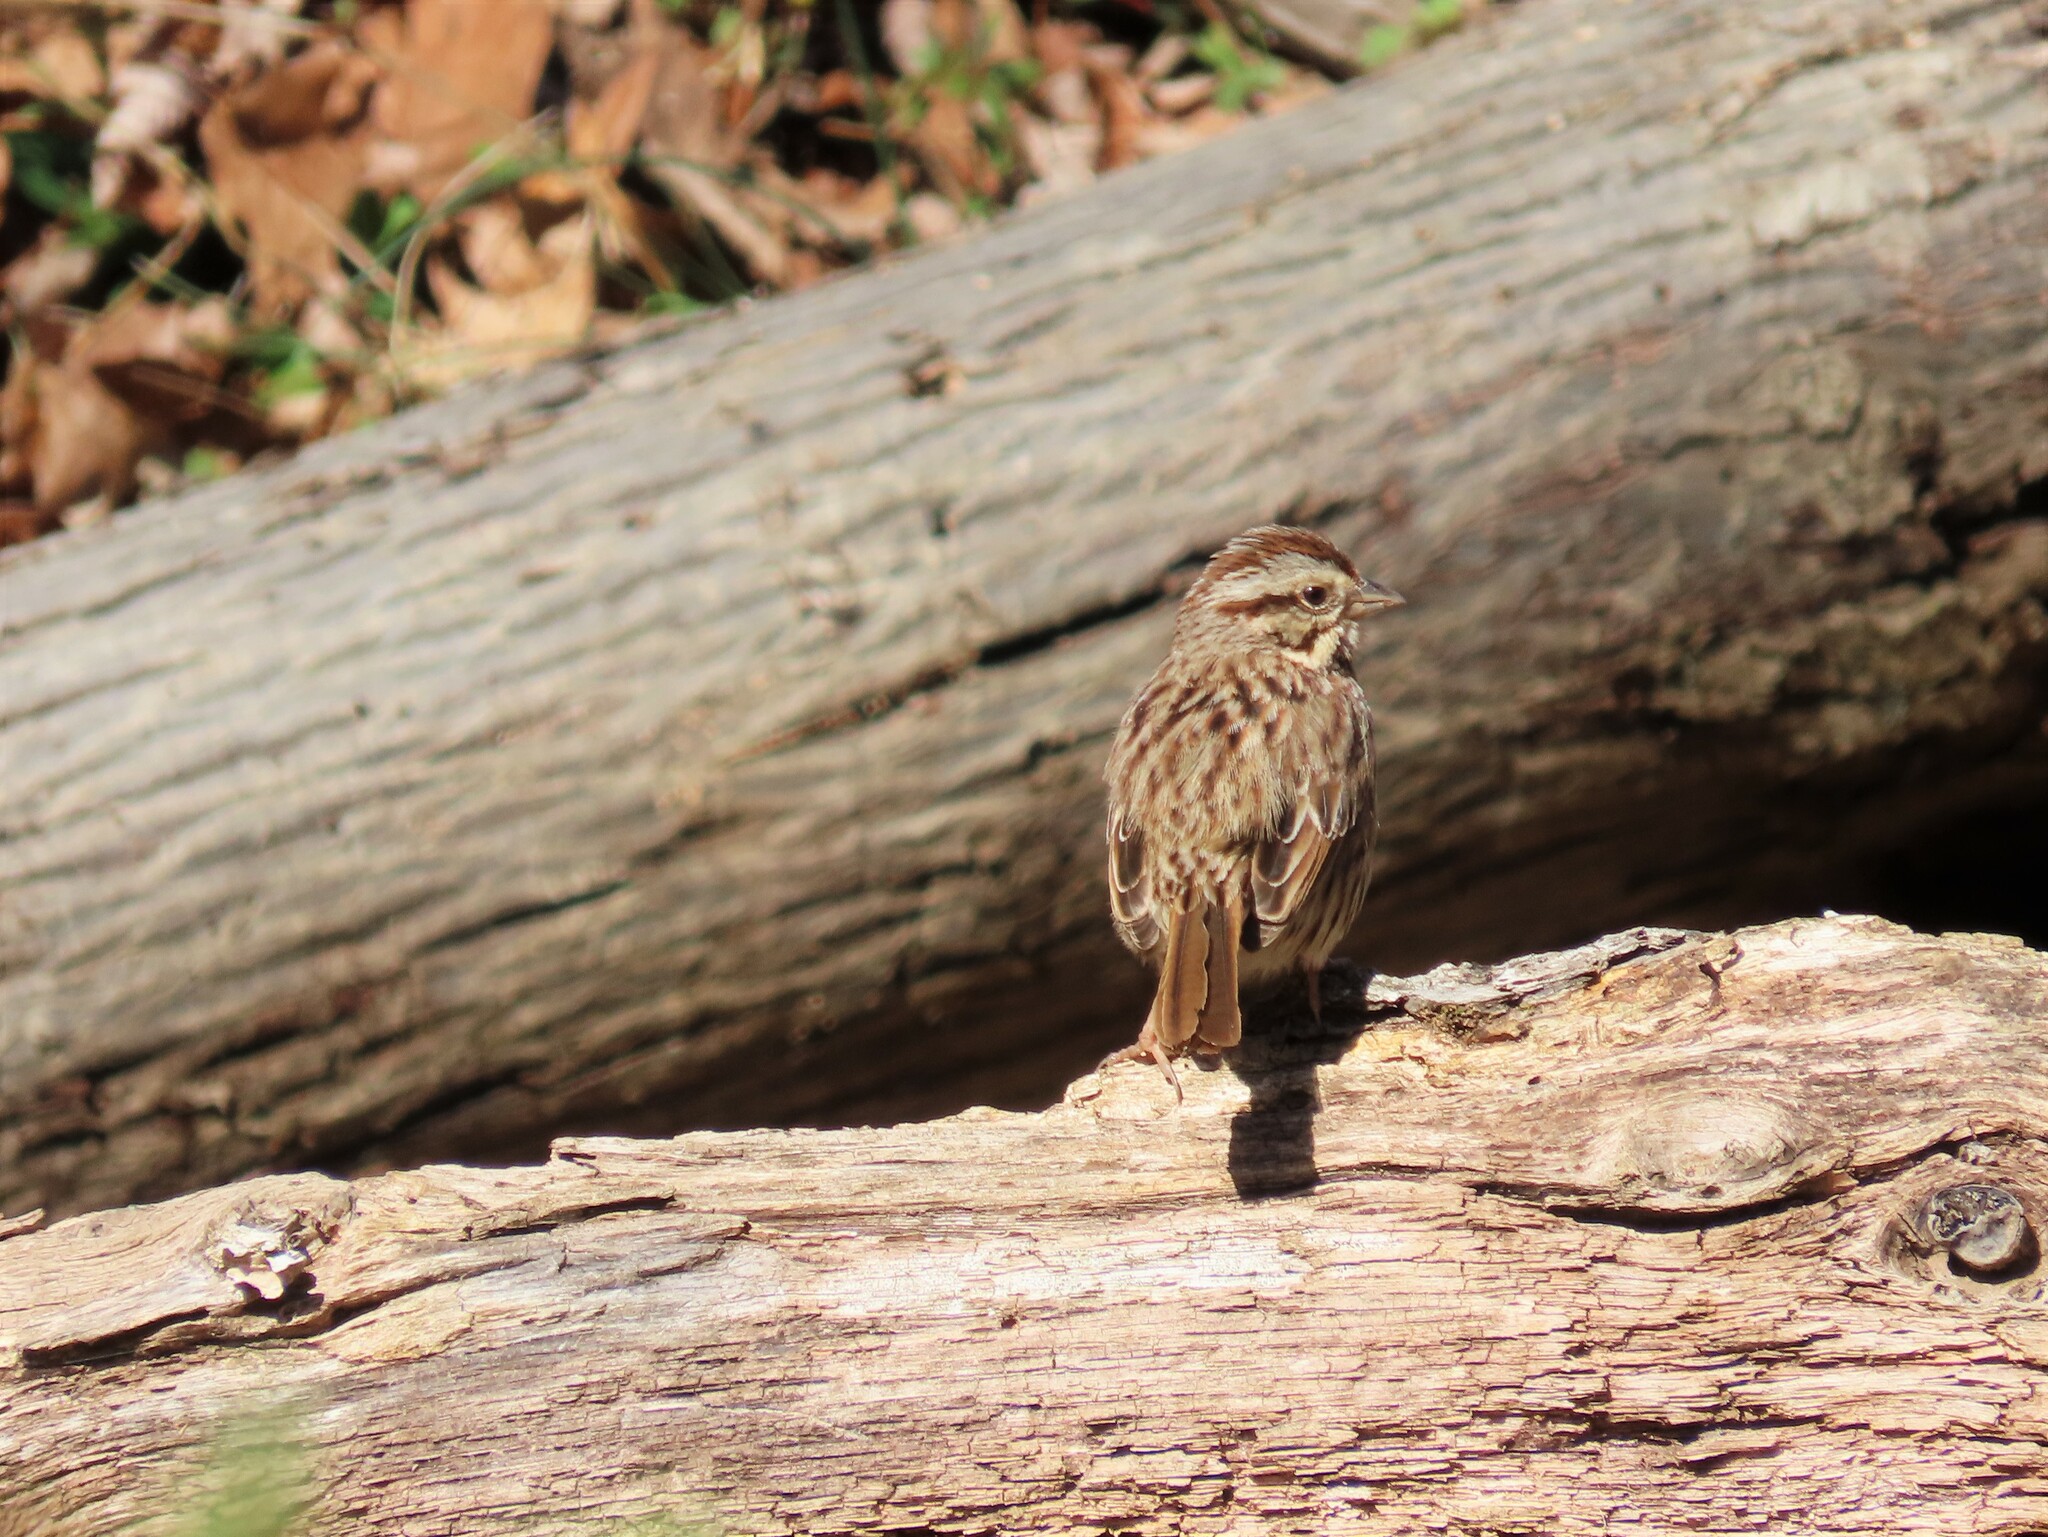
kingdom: Animalia
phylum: Chordata
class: Aves
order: Passeriformes
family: Passerellidae
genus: Melospiza
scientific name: Melospiza melodia
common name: Song sparrow
